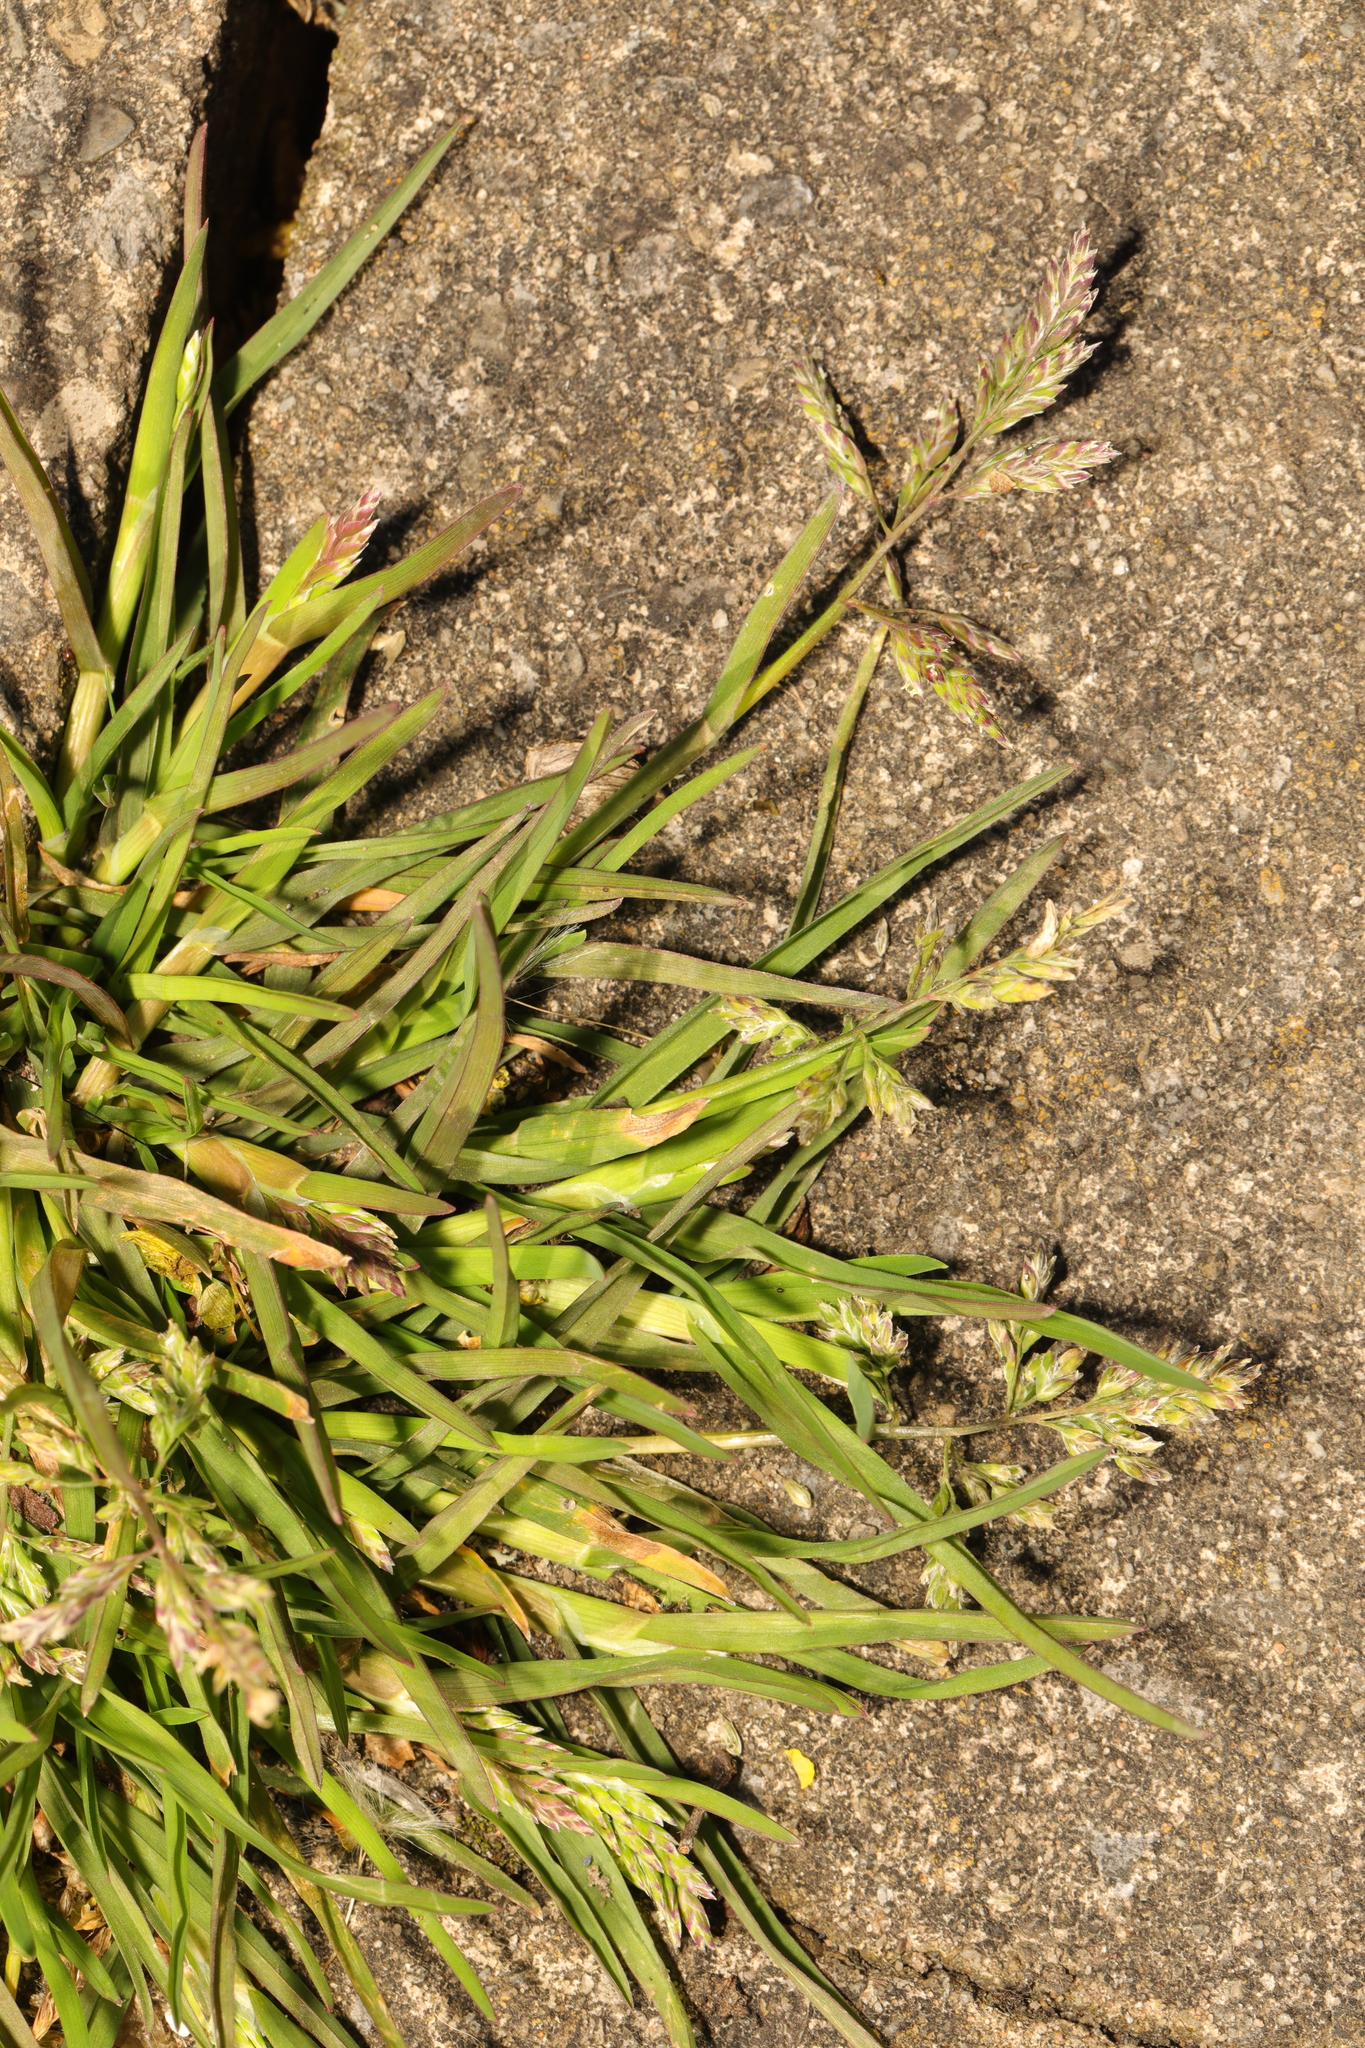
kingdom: Plantae
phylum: Tracheophyta
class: Liliopsida
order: Poales
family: Poaceae
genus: Poa
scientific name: Poa annua
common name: Annual bluegrass
